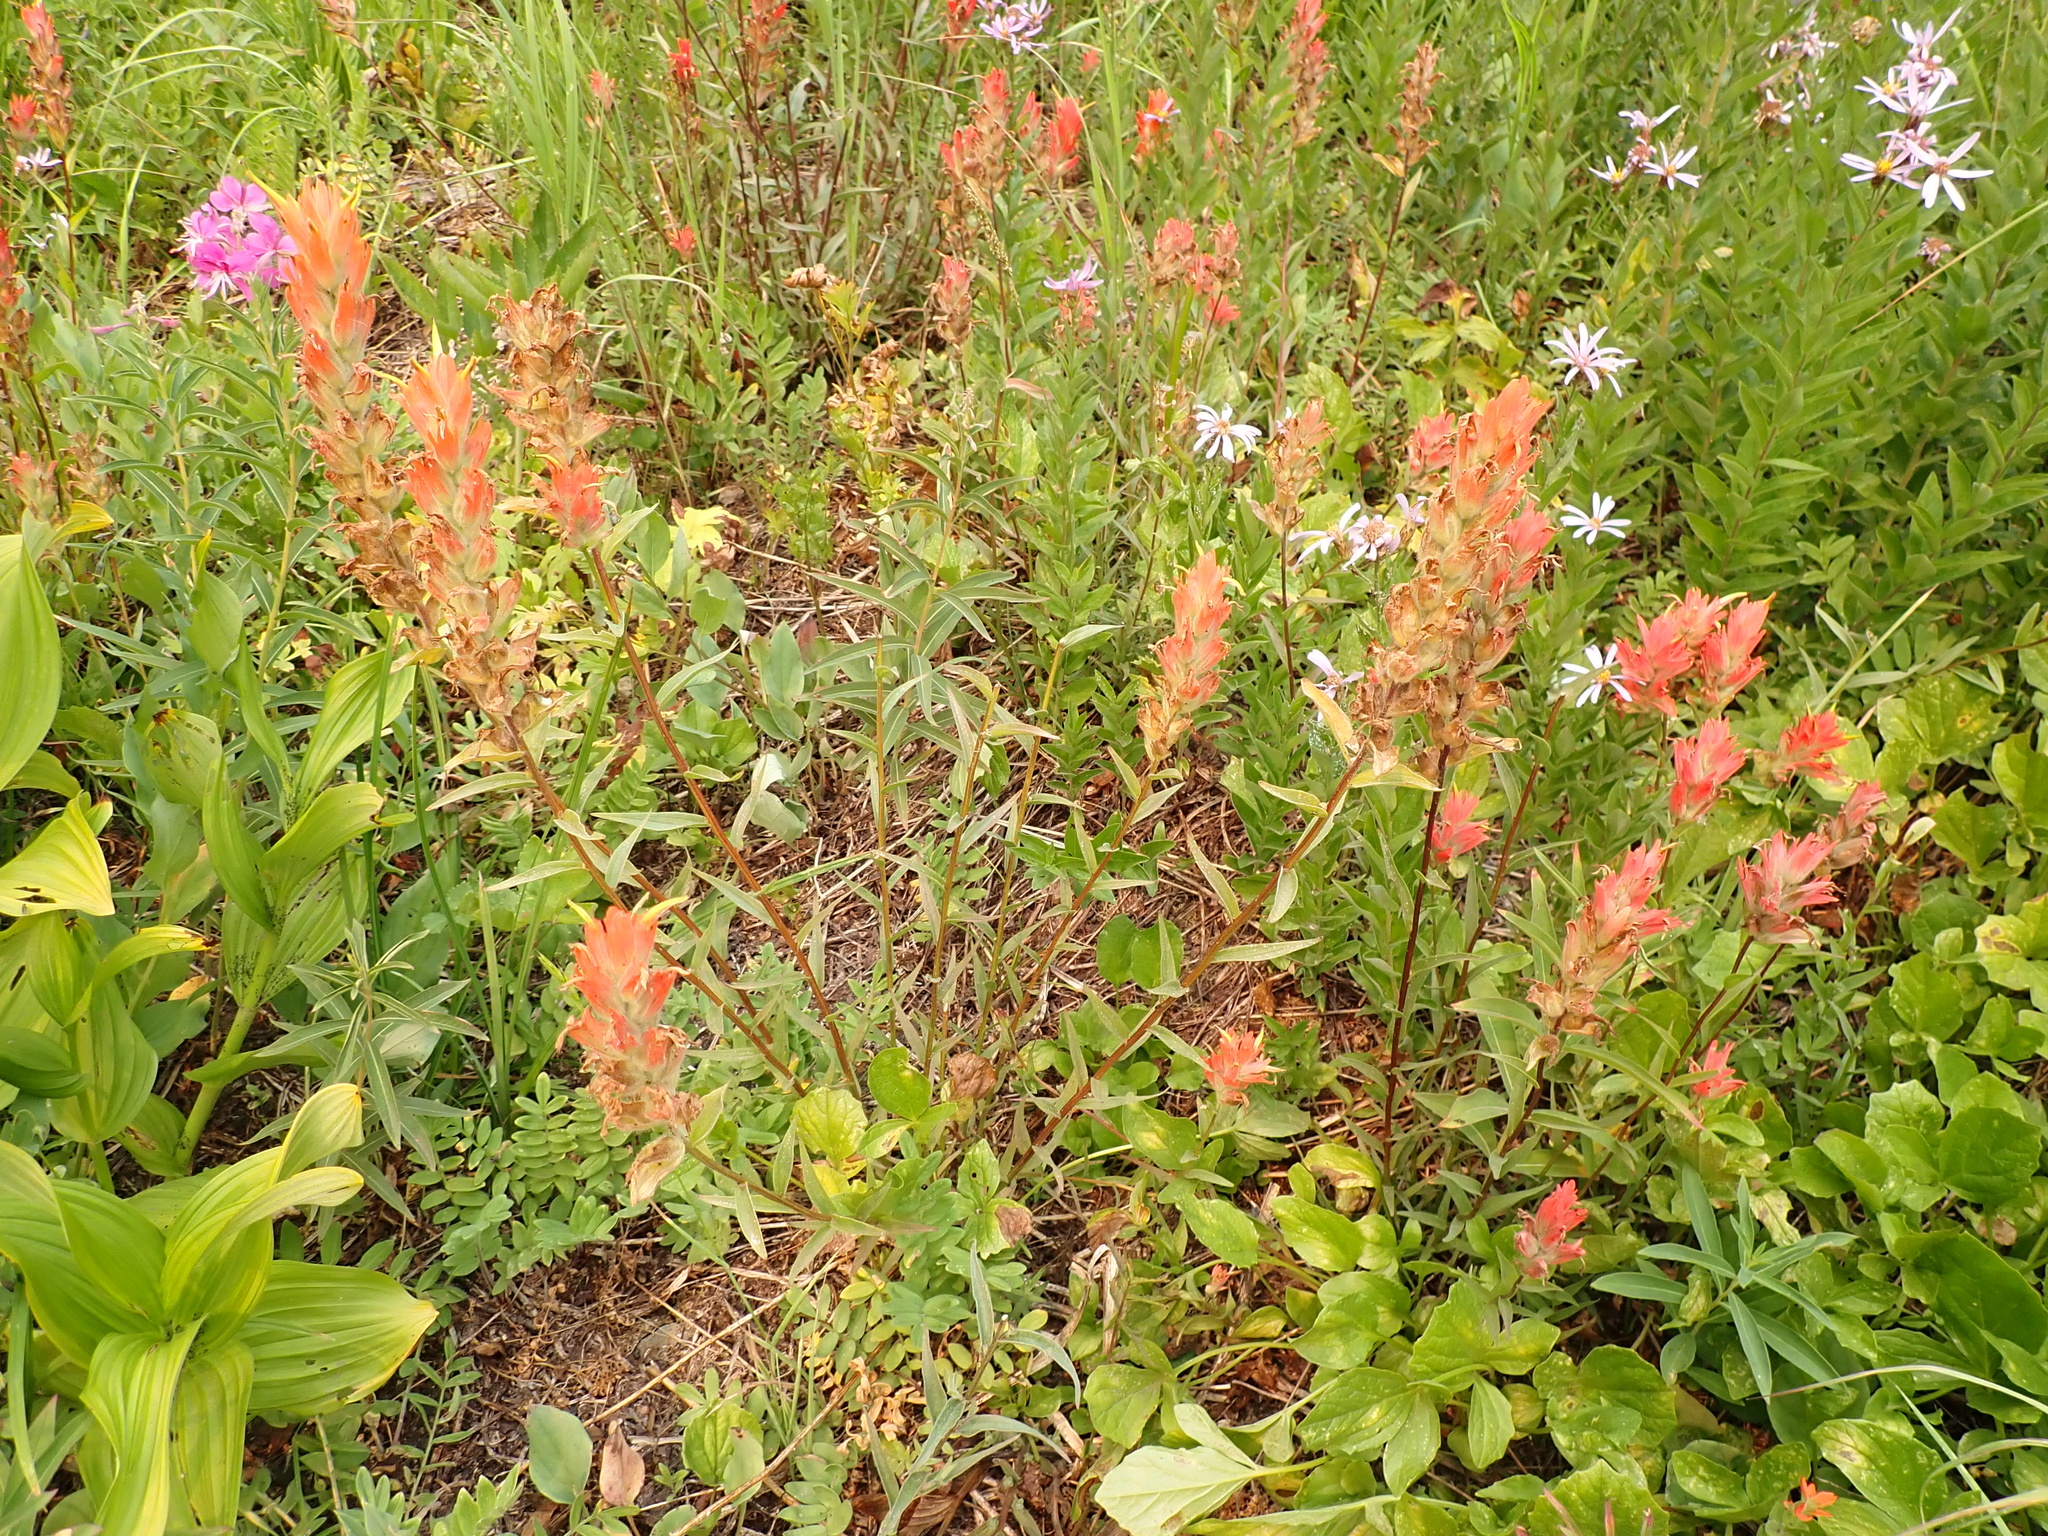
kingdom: Plantae
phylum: Tracheophyta
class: Magnoliopsida
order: Lamiales
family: Orobanchaceae
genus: Castilleja
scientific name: Castilleja miniata
